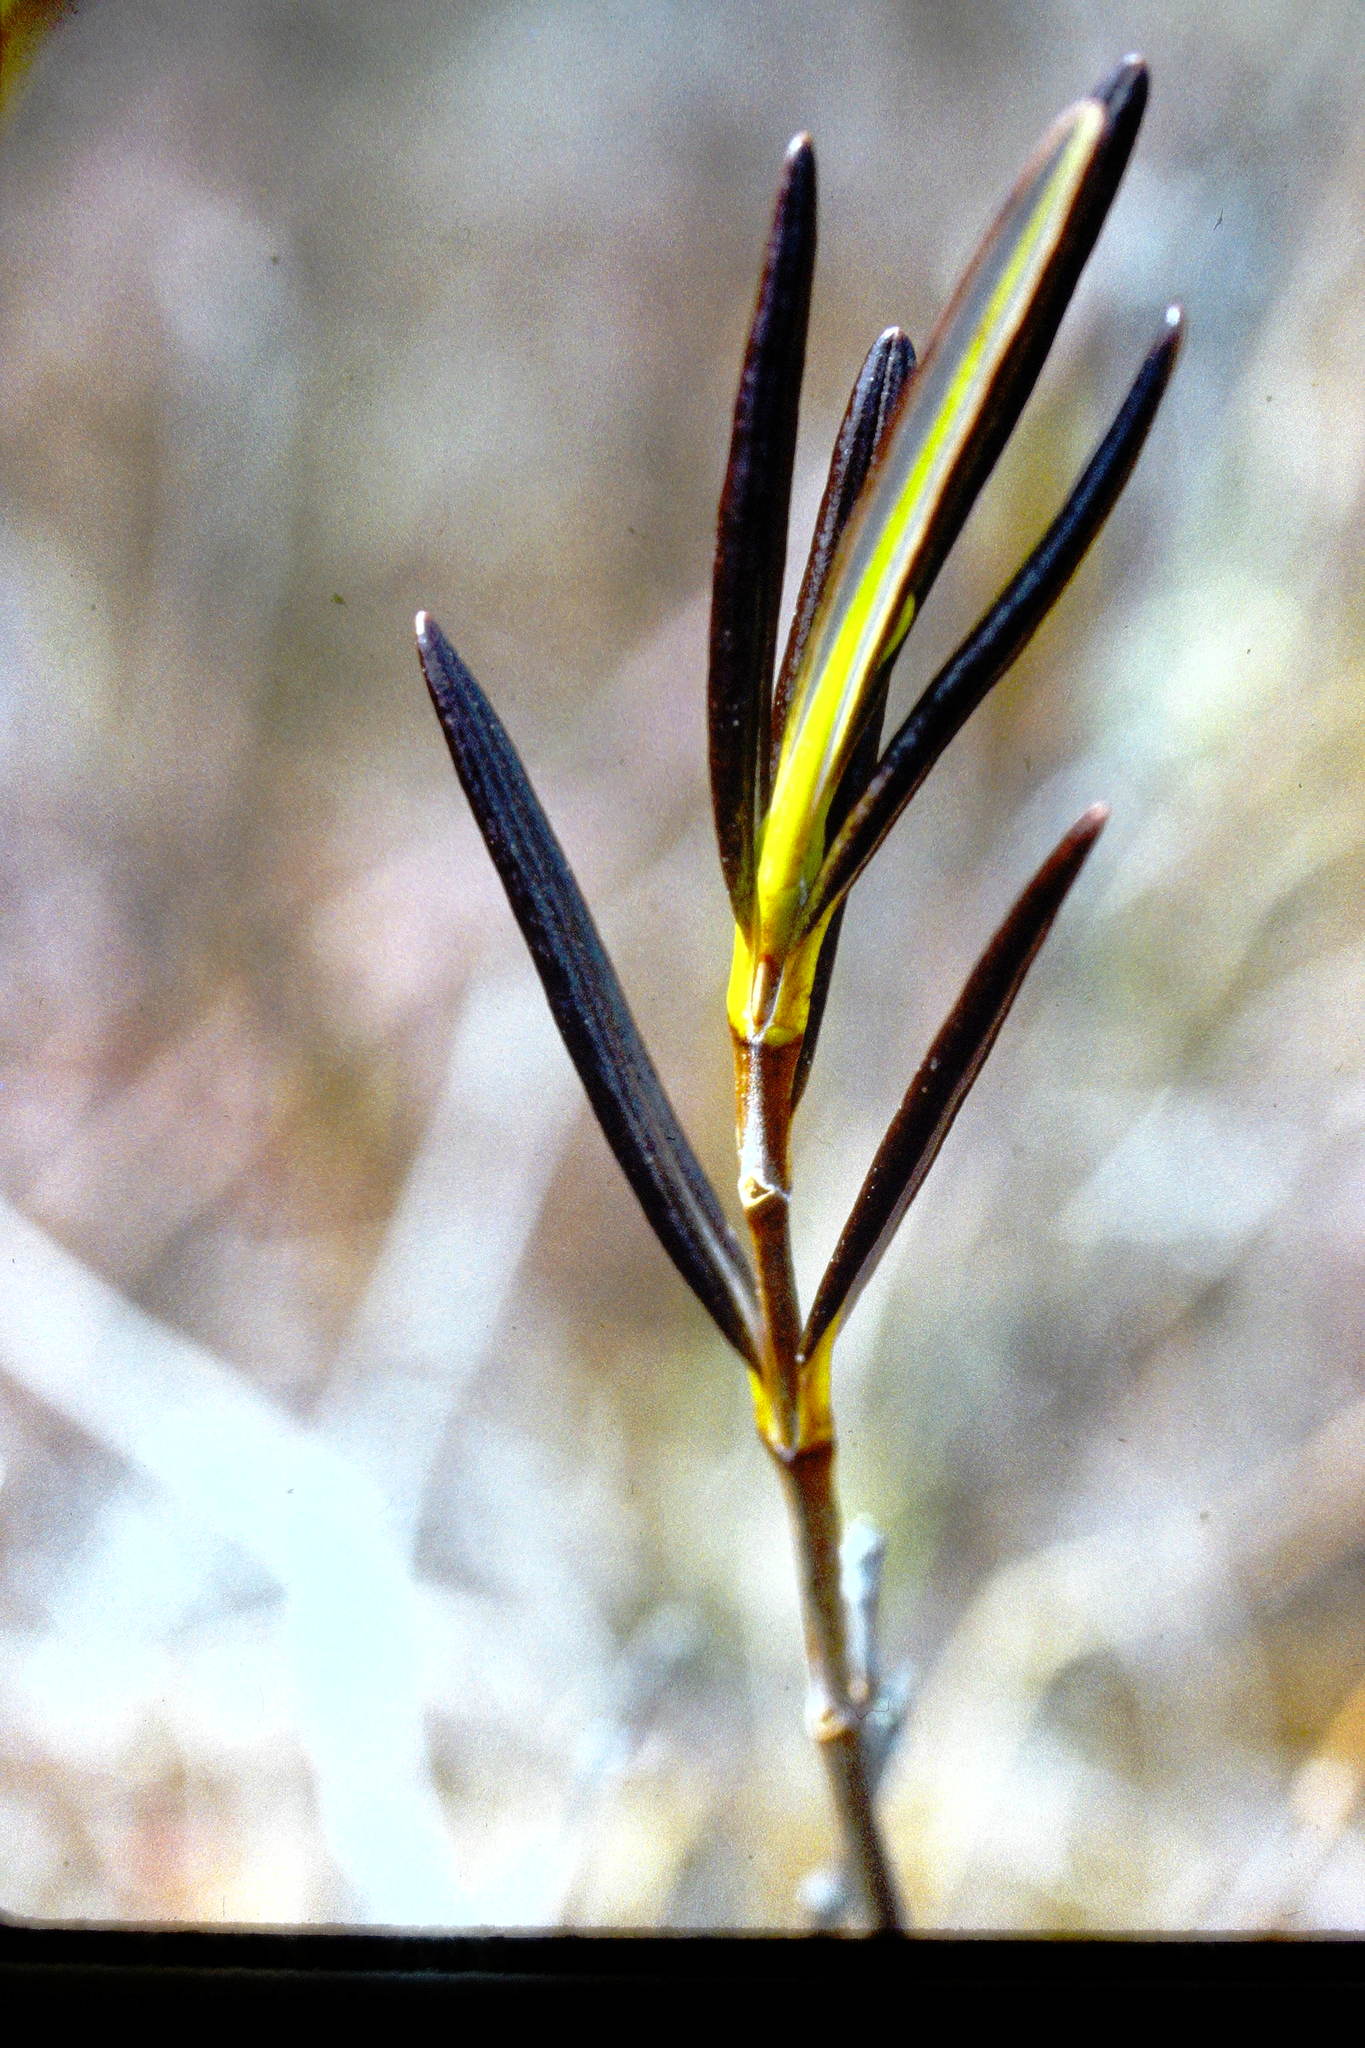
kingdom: Plantae
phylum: Tracheophyta
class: Magnoliopsida
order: Ericales
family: Ericaceae
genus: Kalmia
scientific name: Kalmia polifolia
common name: Bog-laurel
